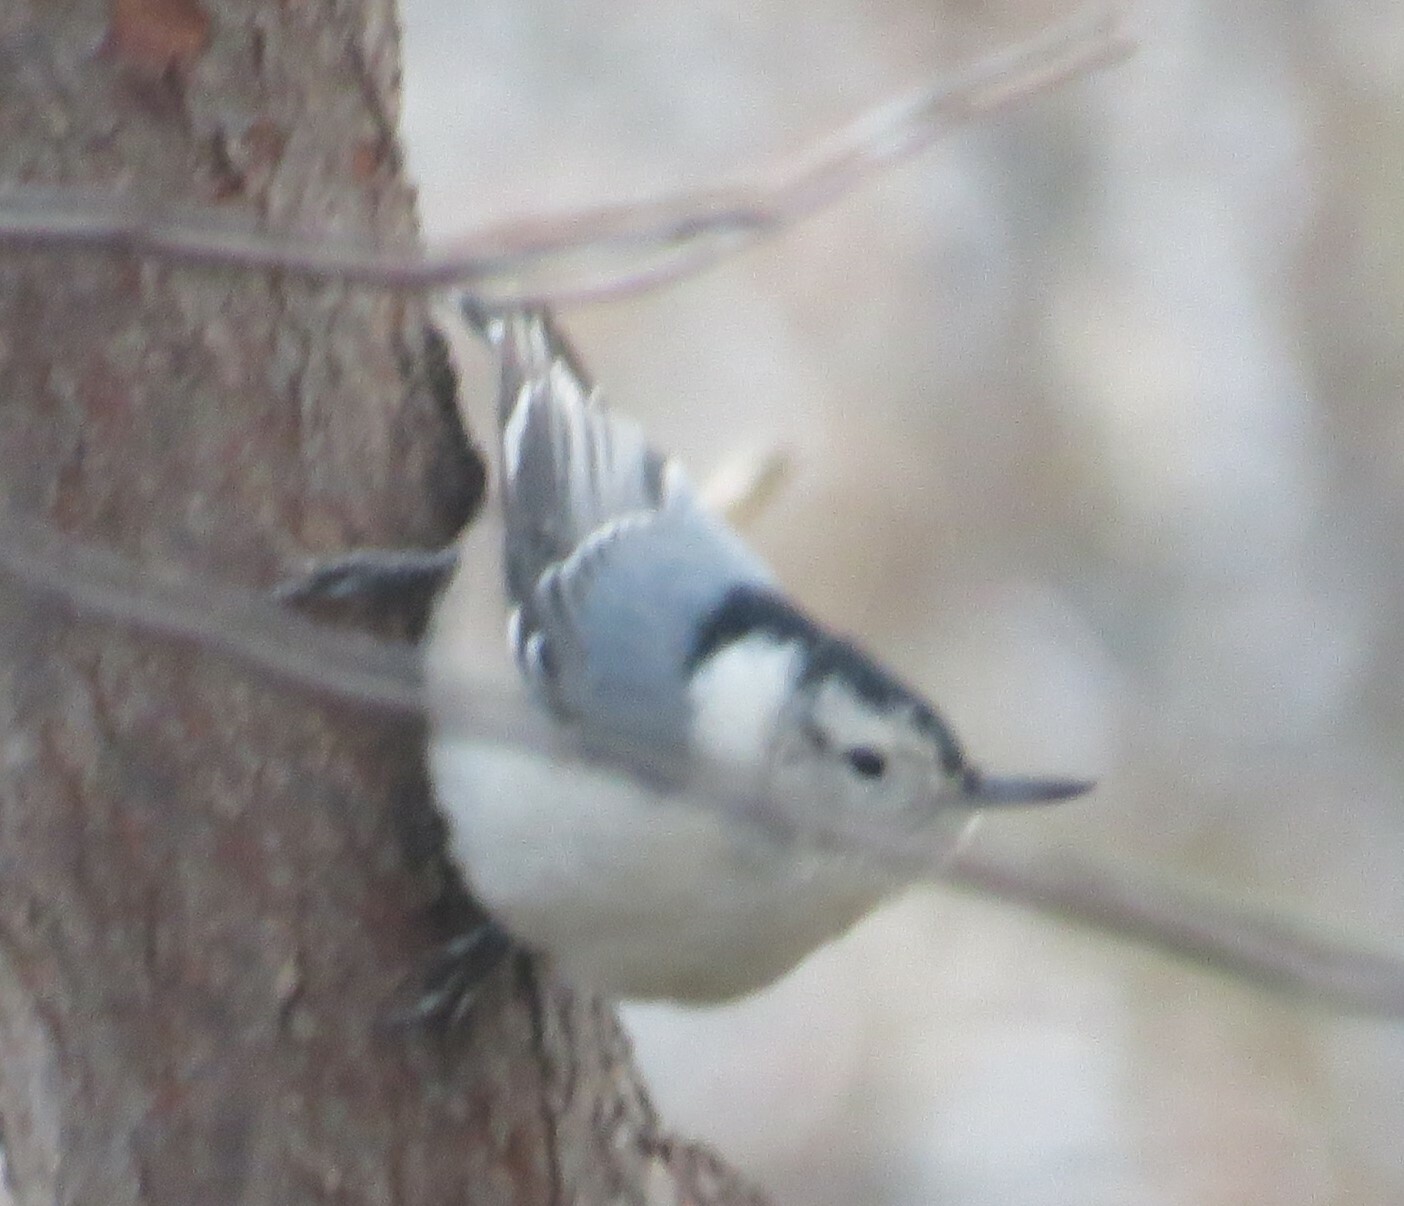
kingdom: Animalia
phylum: Chordata
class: Aves
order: Passeriformes
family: Sittidae
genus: Sitta
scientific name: Sitta carolinensis
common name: White-breasted nuthatch
